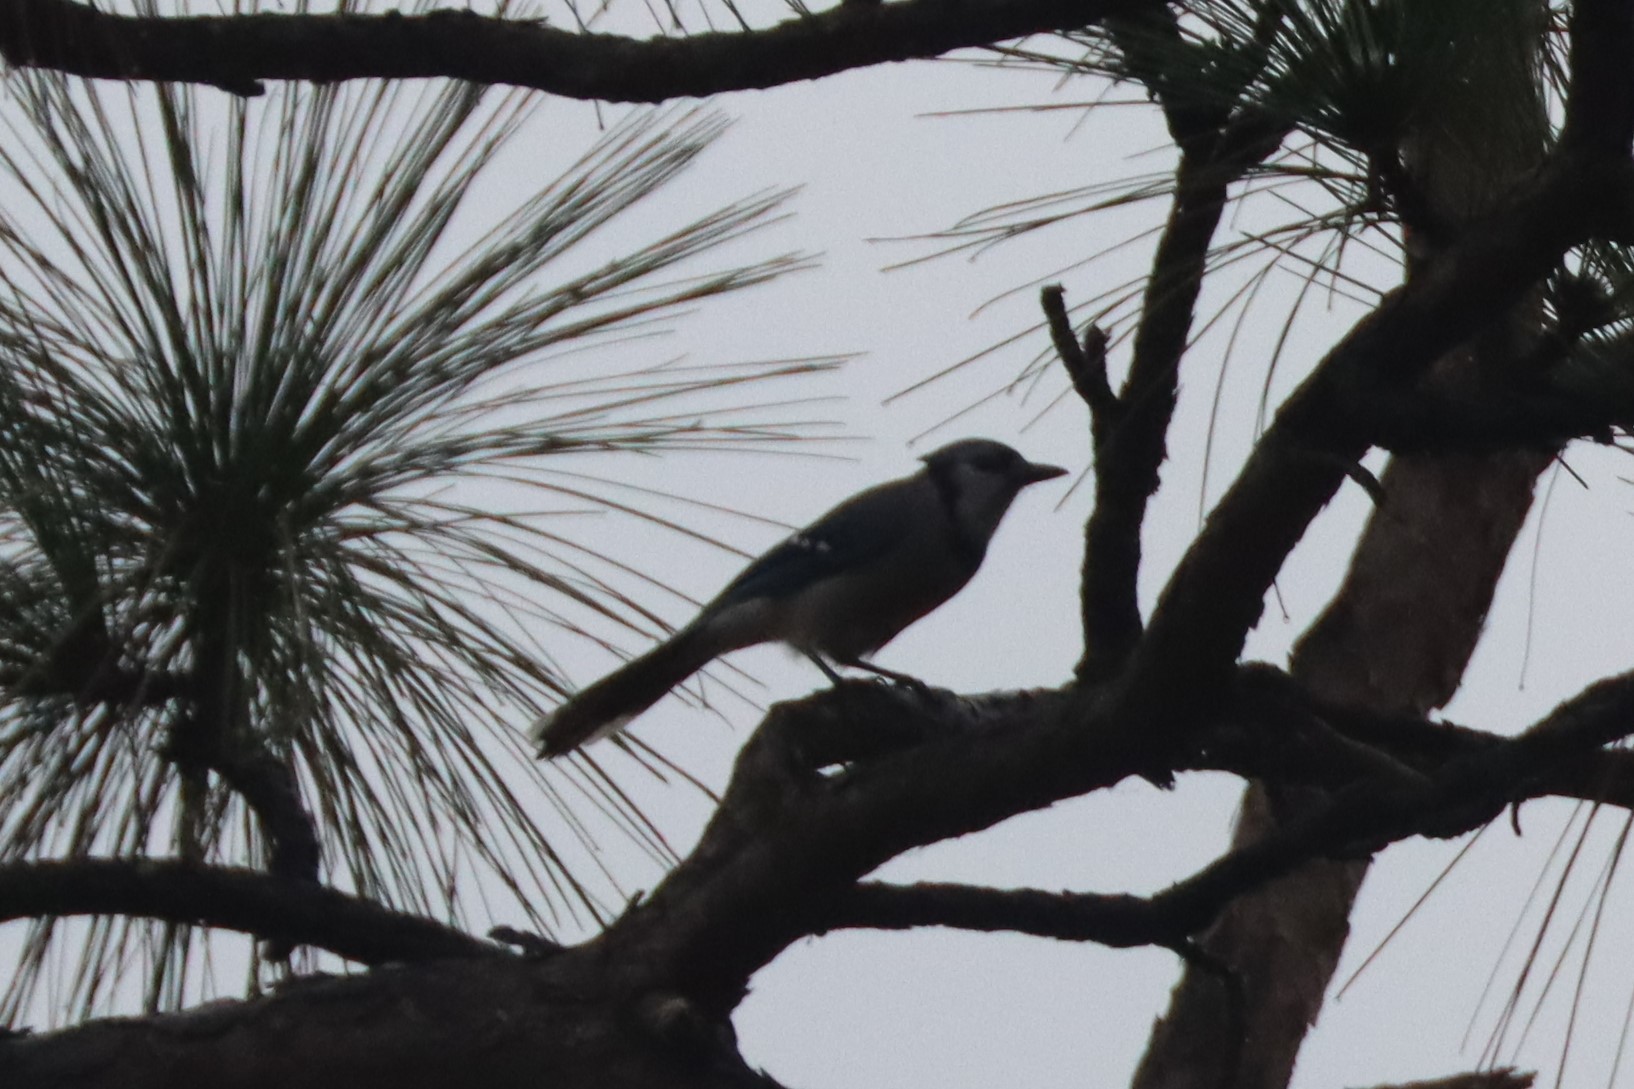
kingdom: Animalia
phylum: Chordata
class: Aves
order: Passeriformes
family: Corvidae
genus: Cyanocitta
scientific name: Cyanocitta cristata
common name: Blue jay
